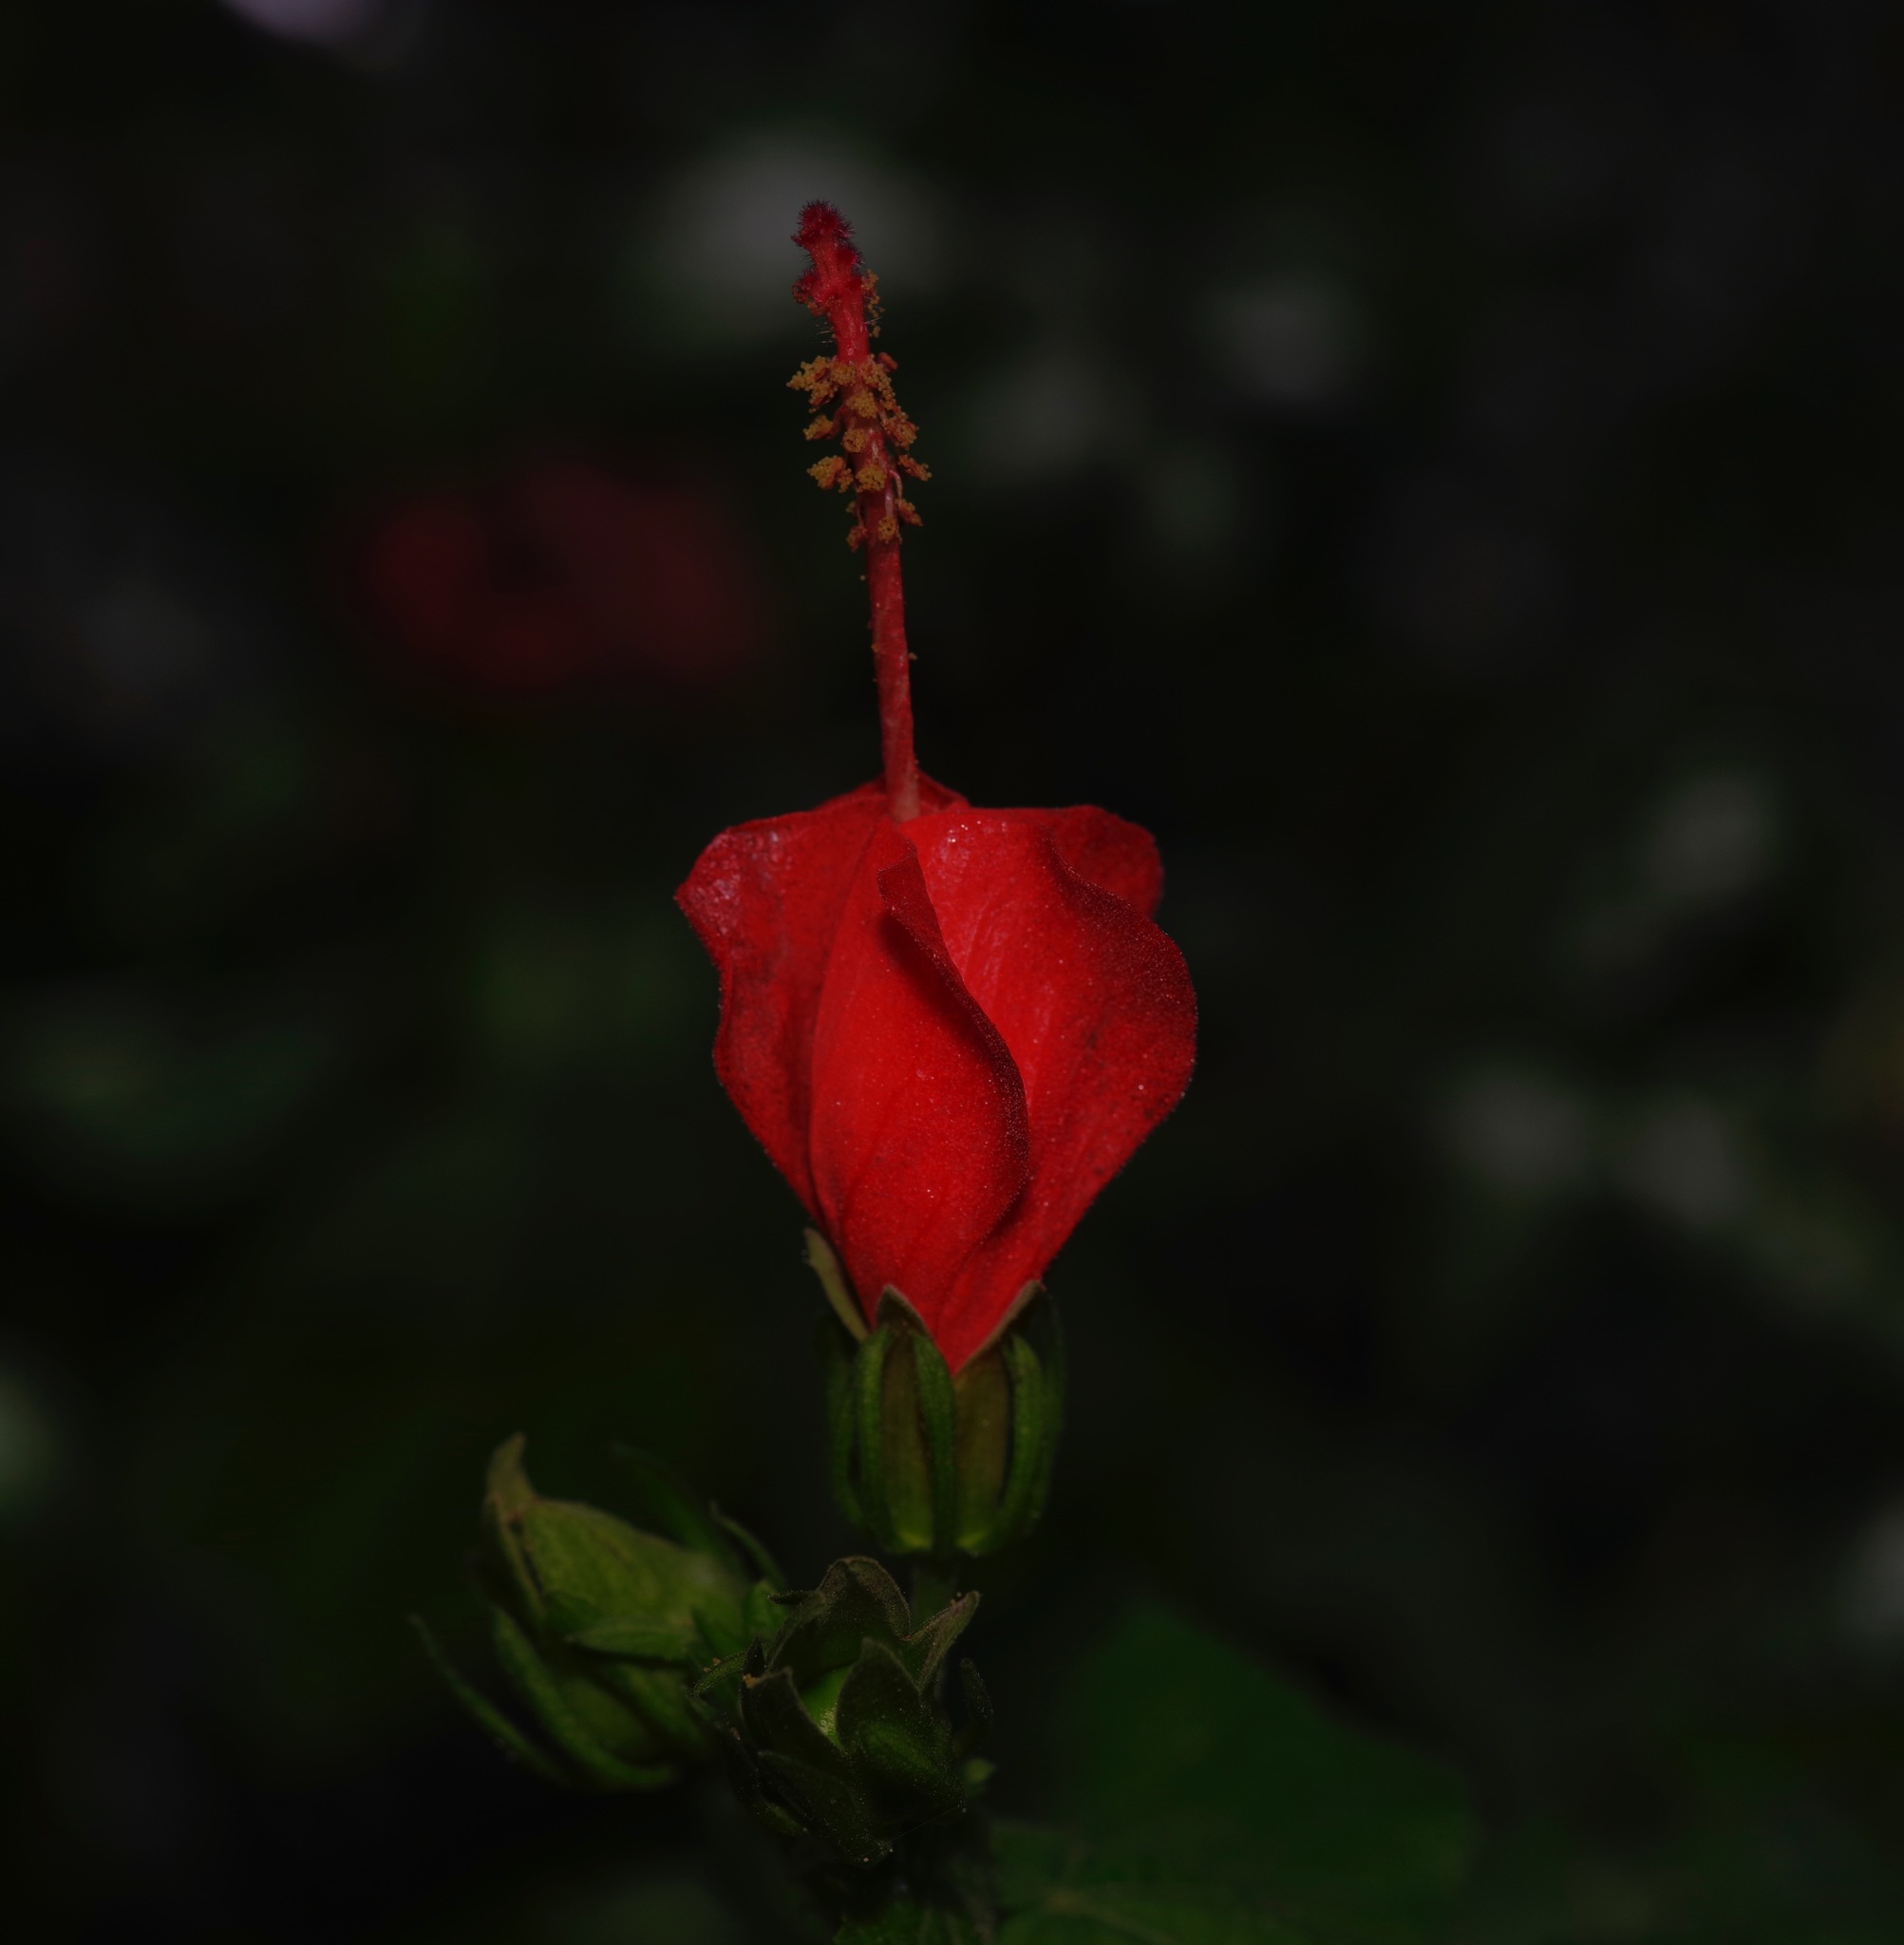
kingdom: Plantae
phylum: Tracheophyta
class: Magnoliopsida
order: Malvales
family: Malvaceae
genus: Malvaviscus
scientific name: Malvaviscus arboreus
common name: Wax mallow
